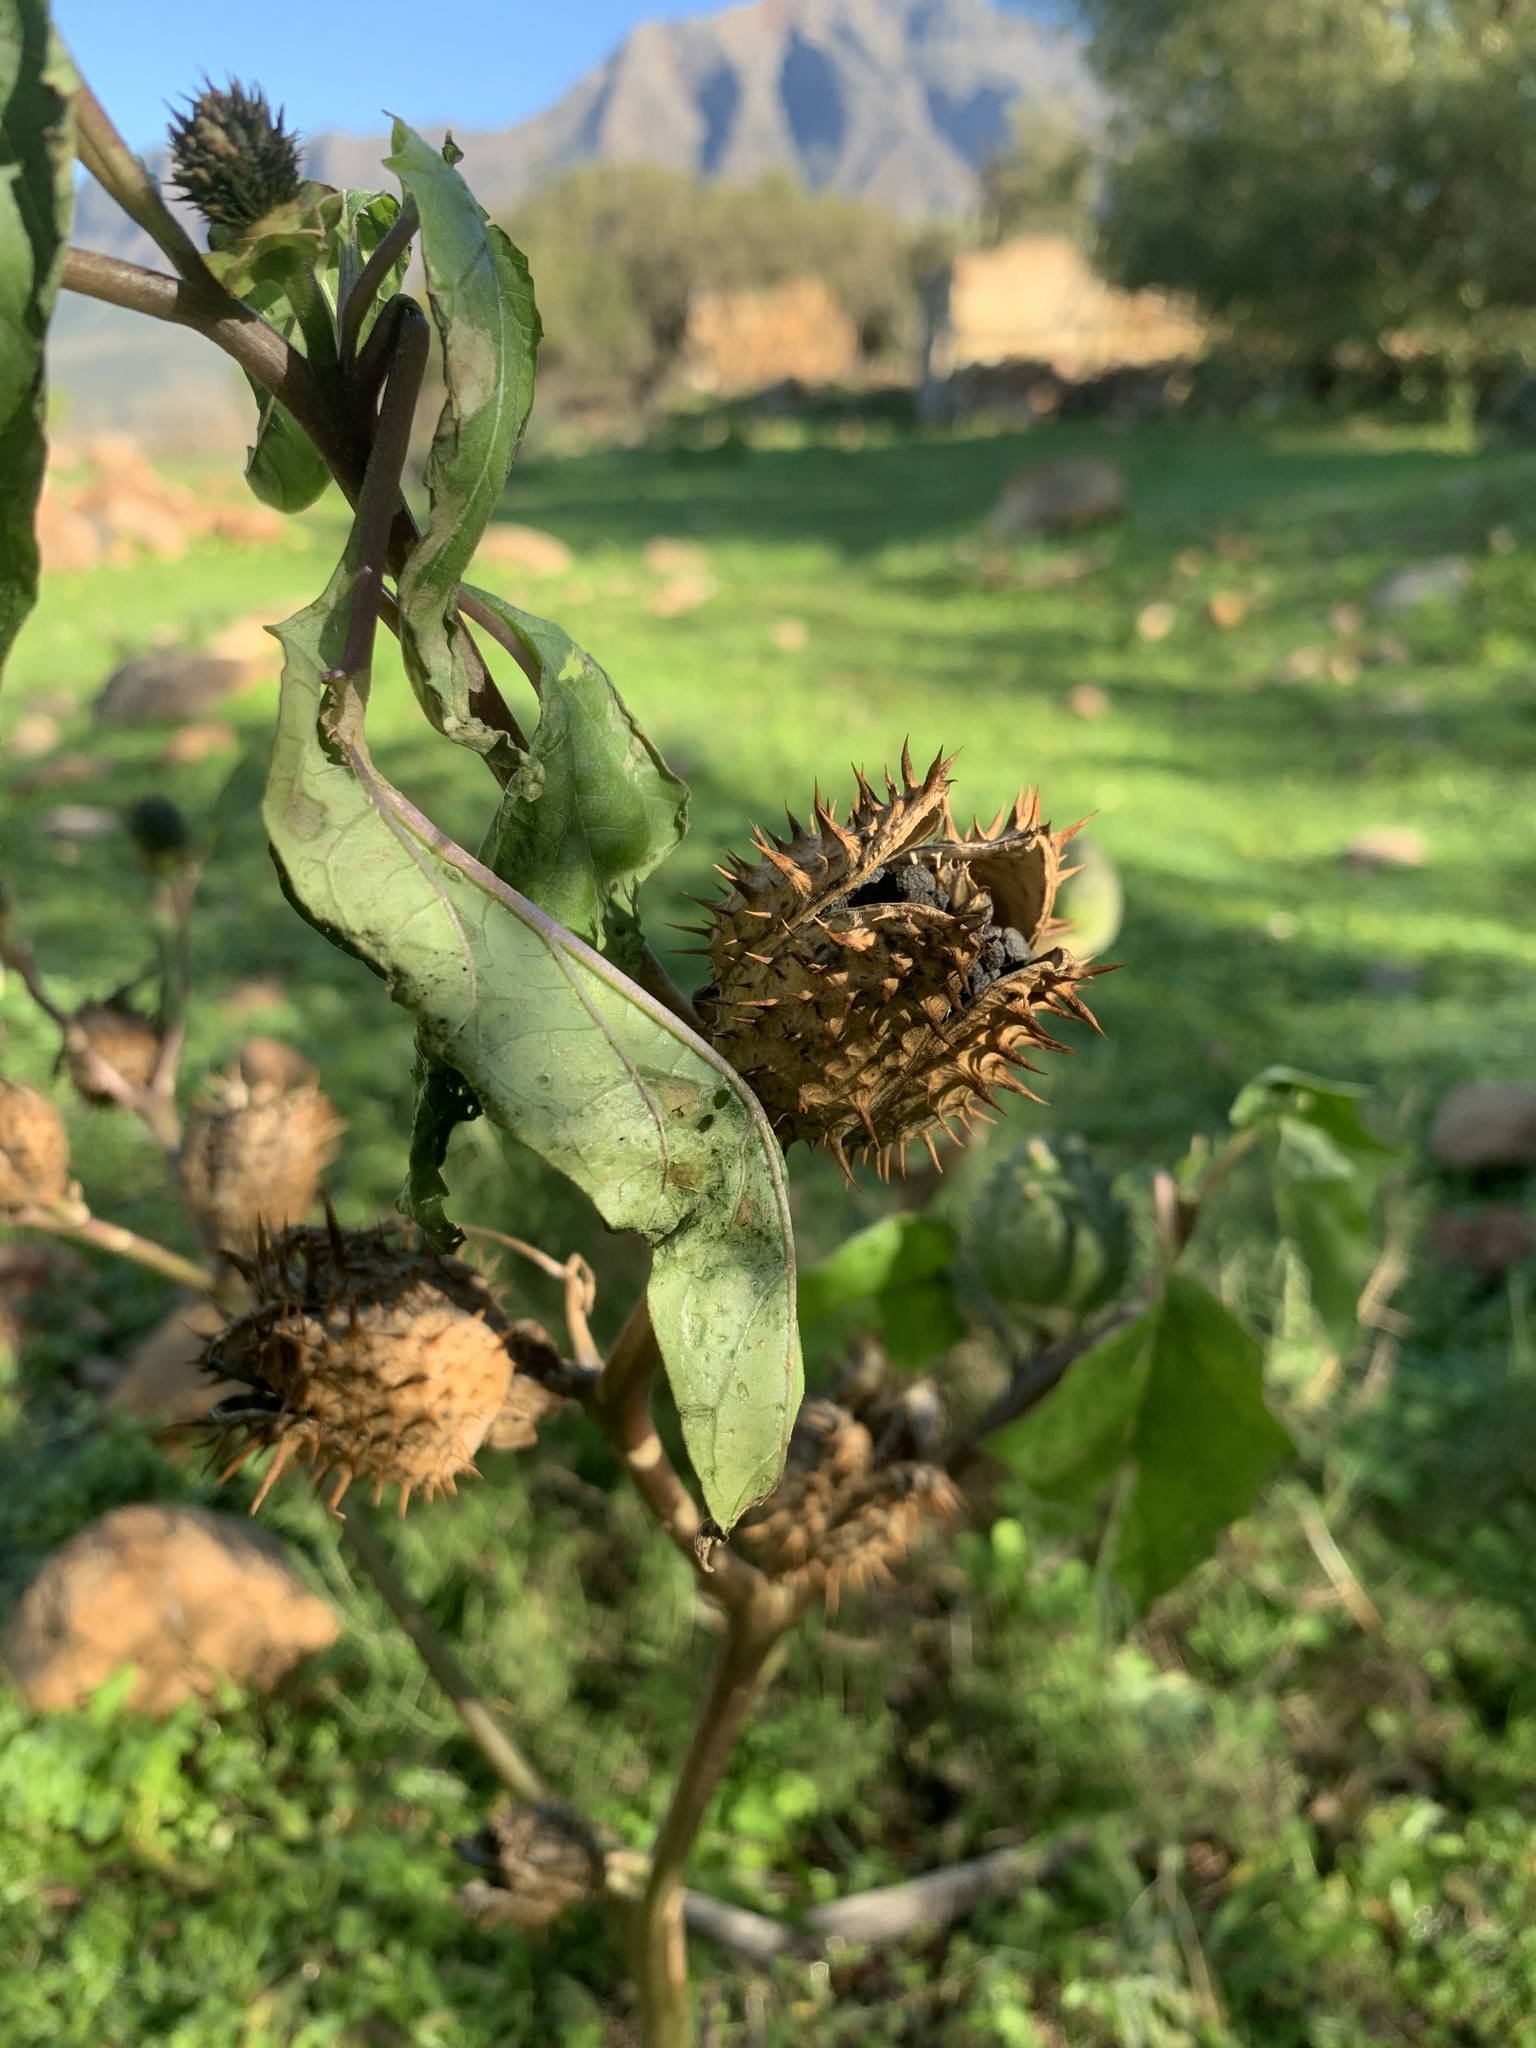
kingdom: Plantae
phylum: Tracheophyta
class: Magnoliopsida
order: Solanales
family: Solanaceae
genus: Datura
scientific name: Datura stramonium
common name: Thorn-apple
